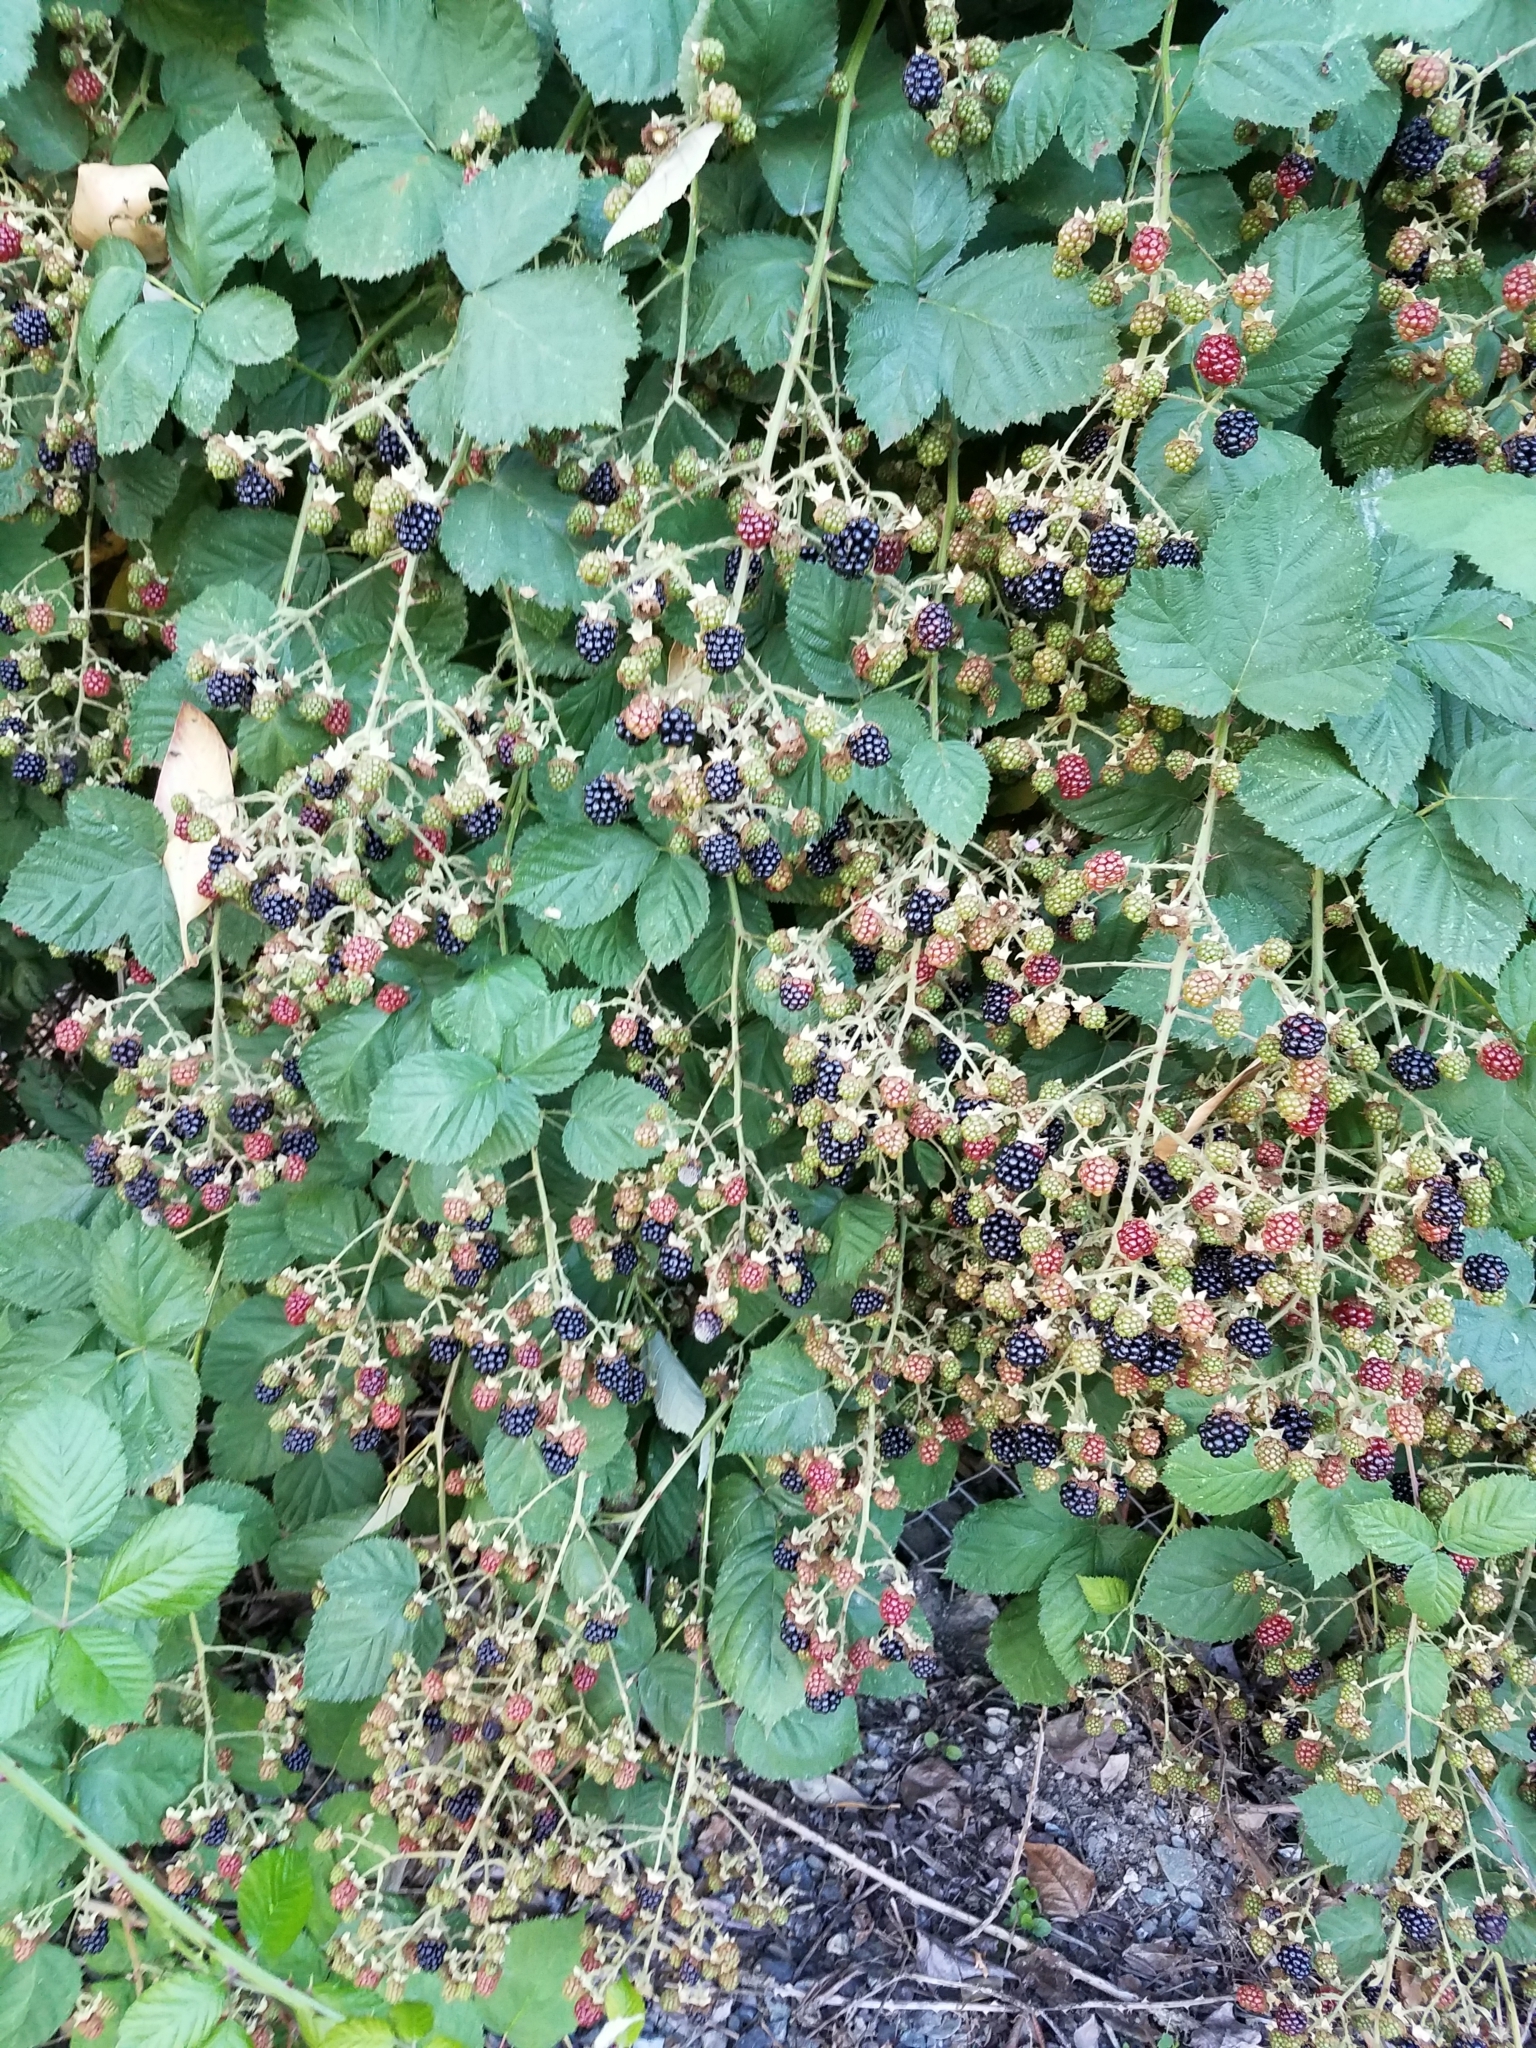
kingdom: Plantae
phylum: Tracheophyta
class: Magnoliopsida
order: Rosales
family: Rosaceae
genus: Rubus
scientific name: Rubus armeniacus
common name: Himalayan blackberry
